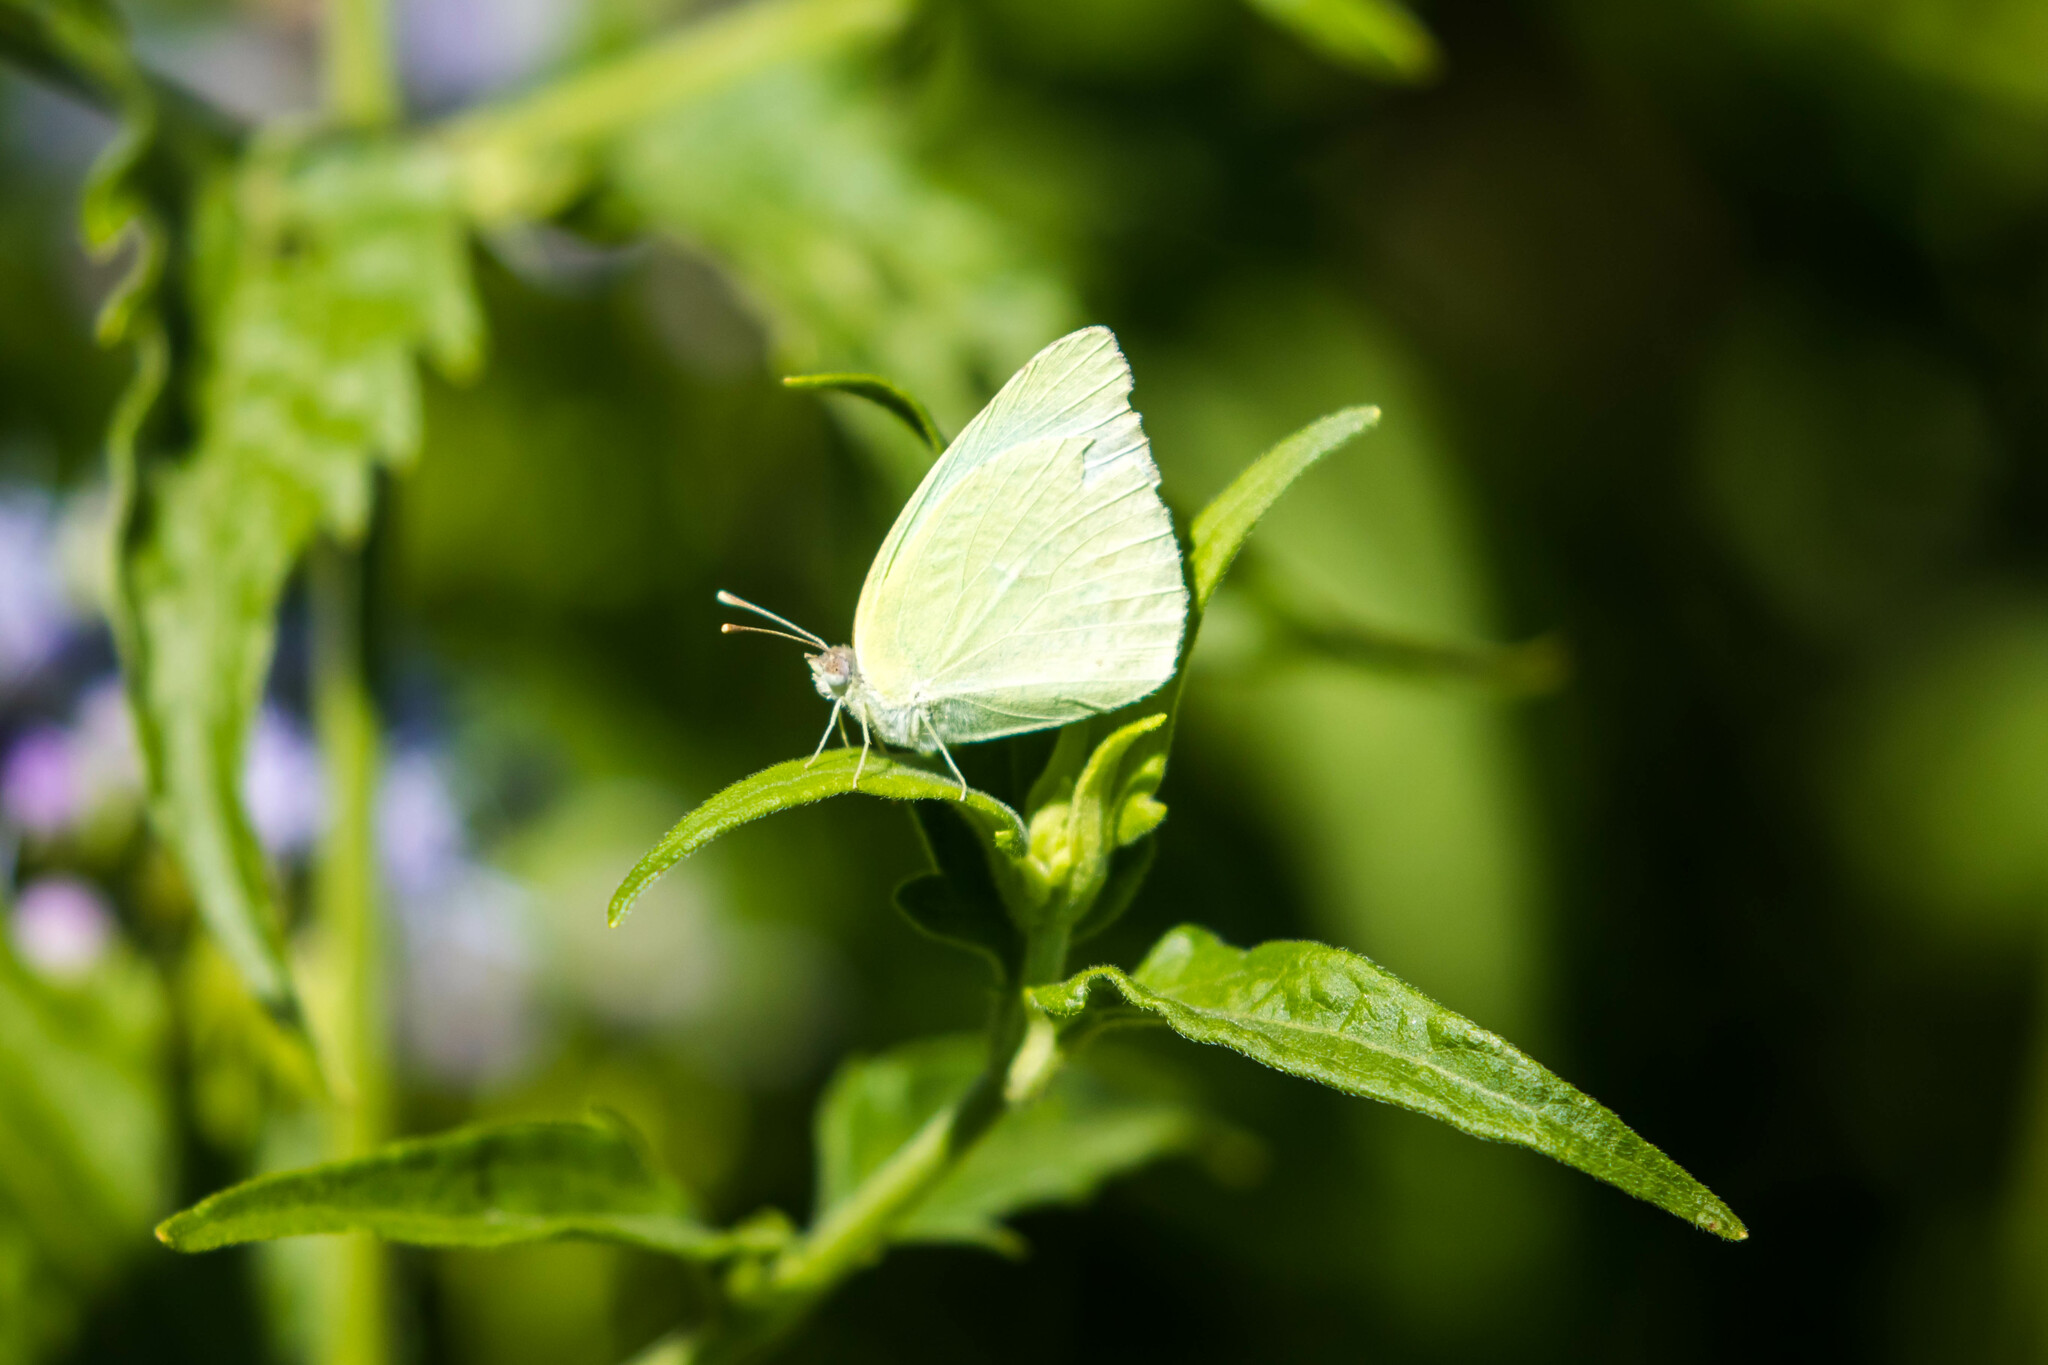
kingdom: Animalia
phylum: Arthropoda
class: Insecta
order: Lepidoptera
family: Pieridae
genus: Kricogonia
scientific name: Kricogonia lyside
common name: Guayacan sulphur,
